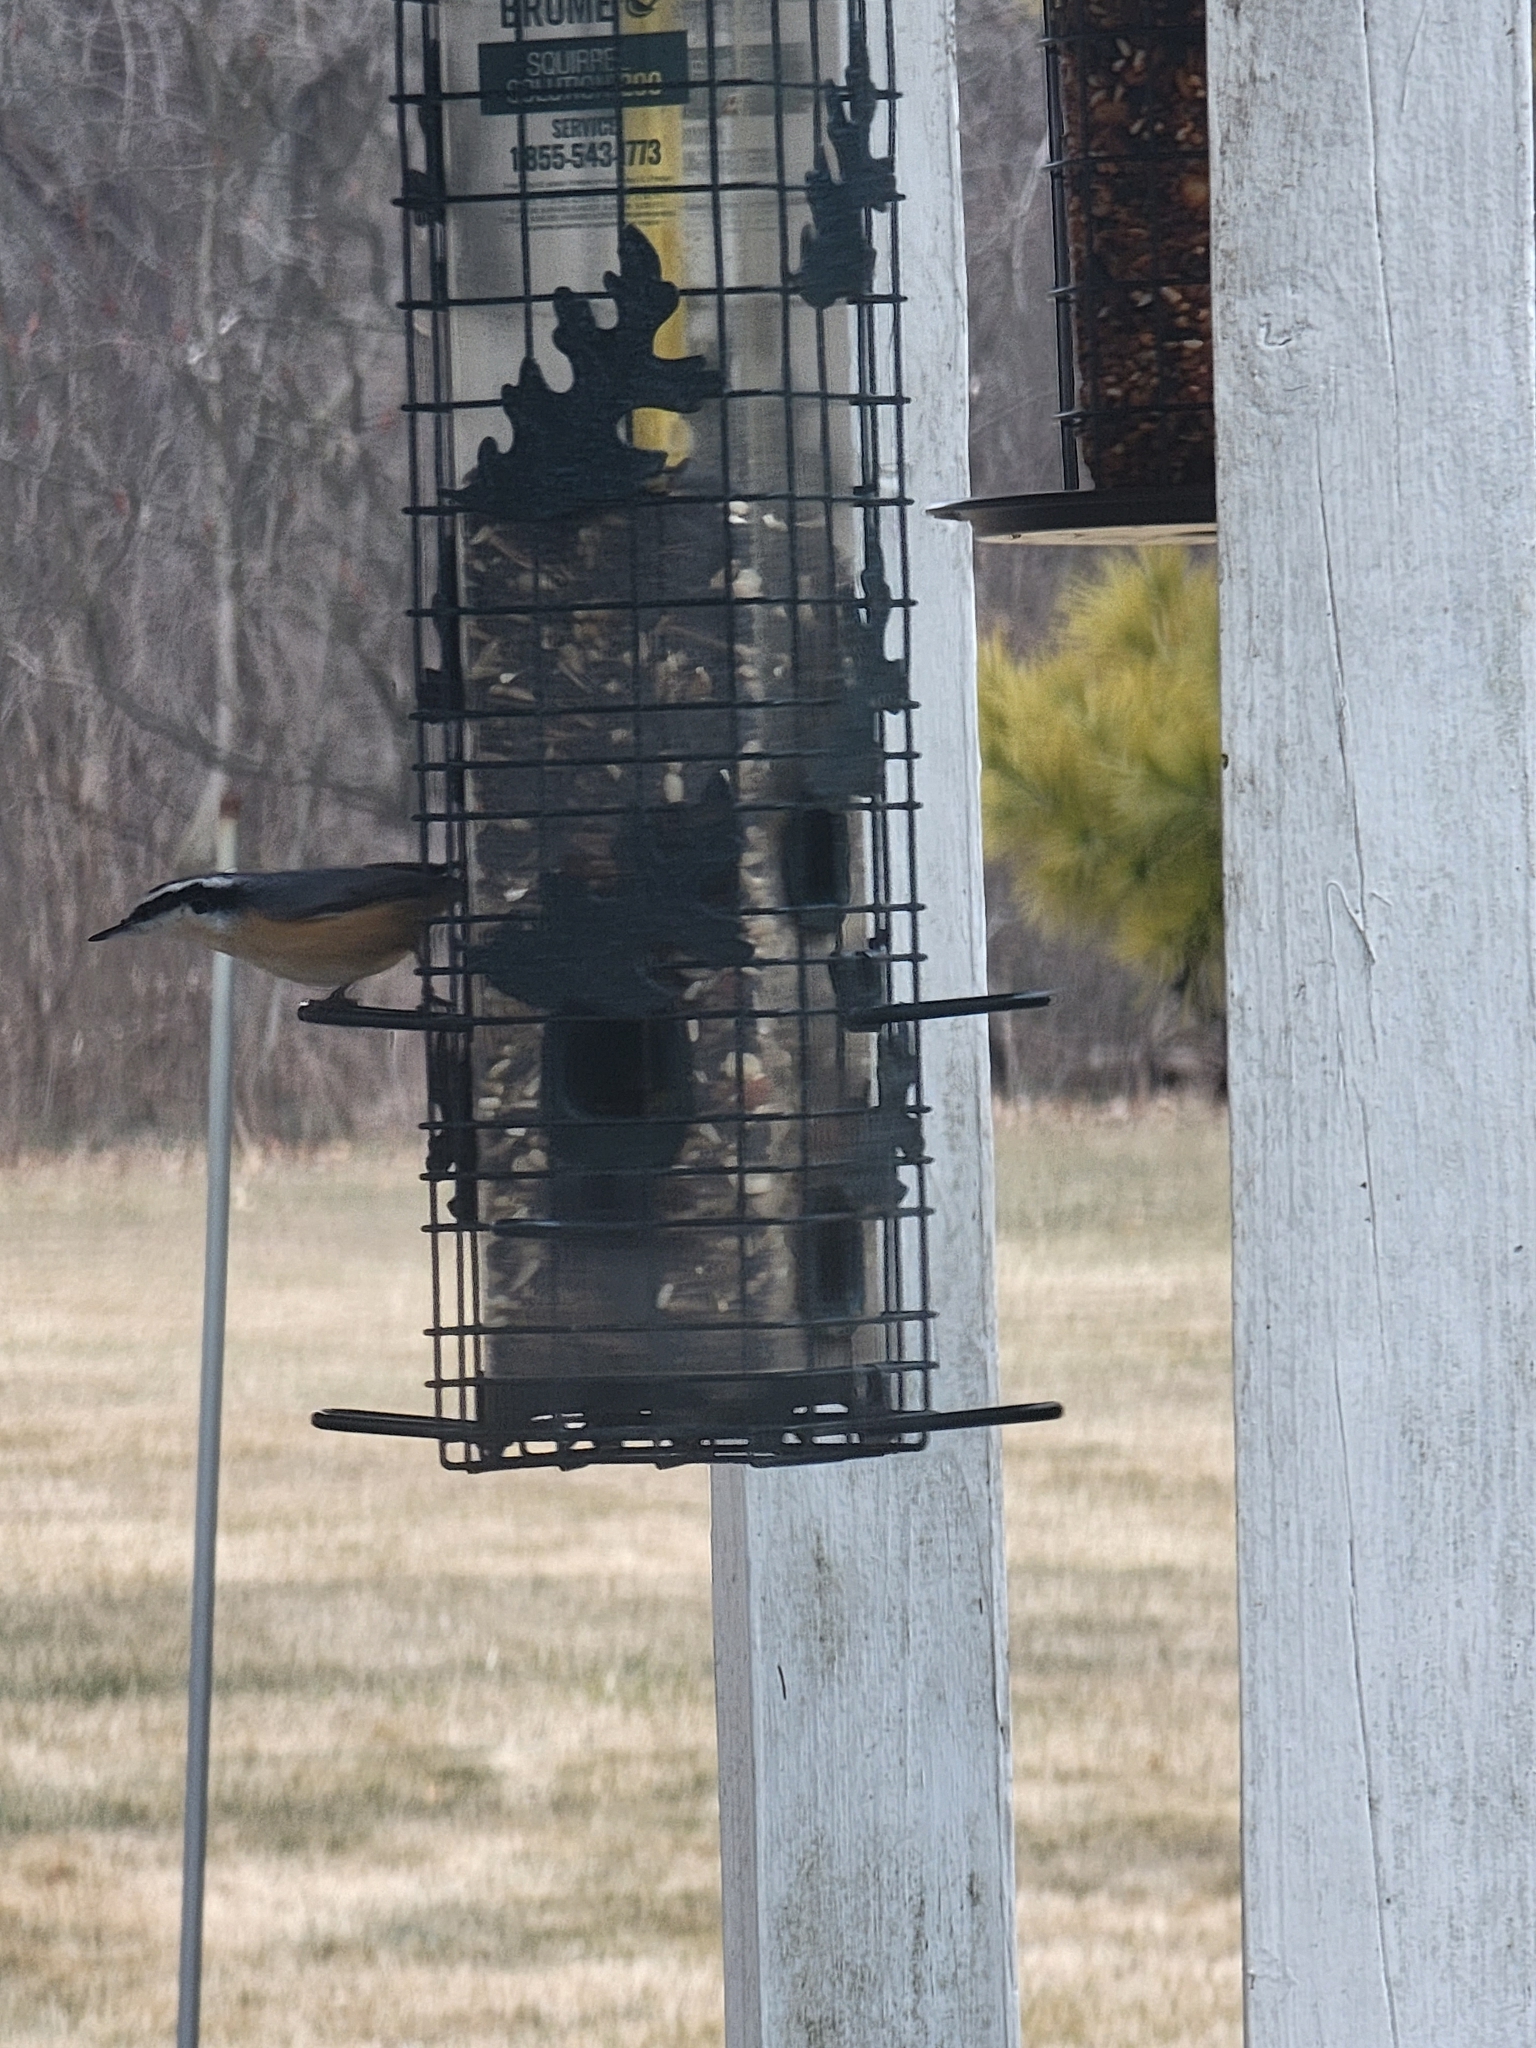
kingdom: Animalia
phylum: Chordata
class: Aves
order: Passeriformes
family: Sittidae
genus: Sitta
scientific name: Sitta canadensis
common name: Red-breasted nuthatch
